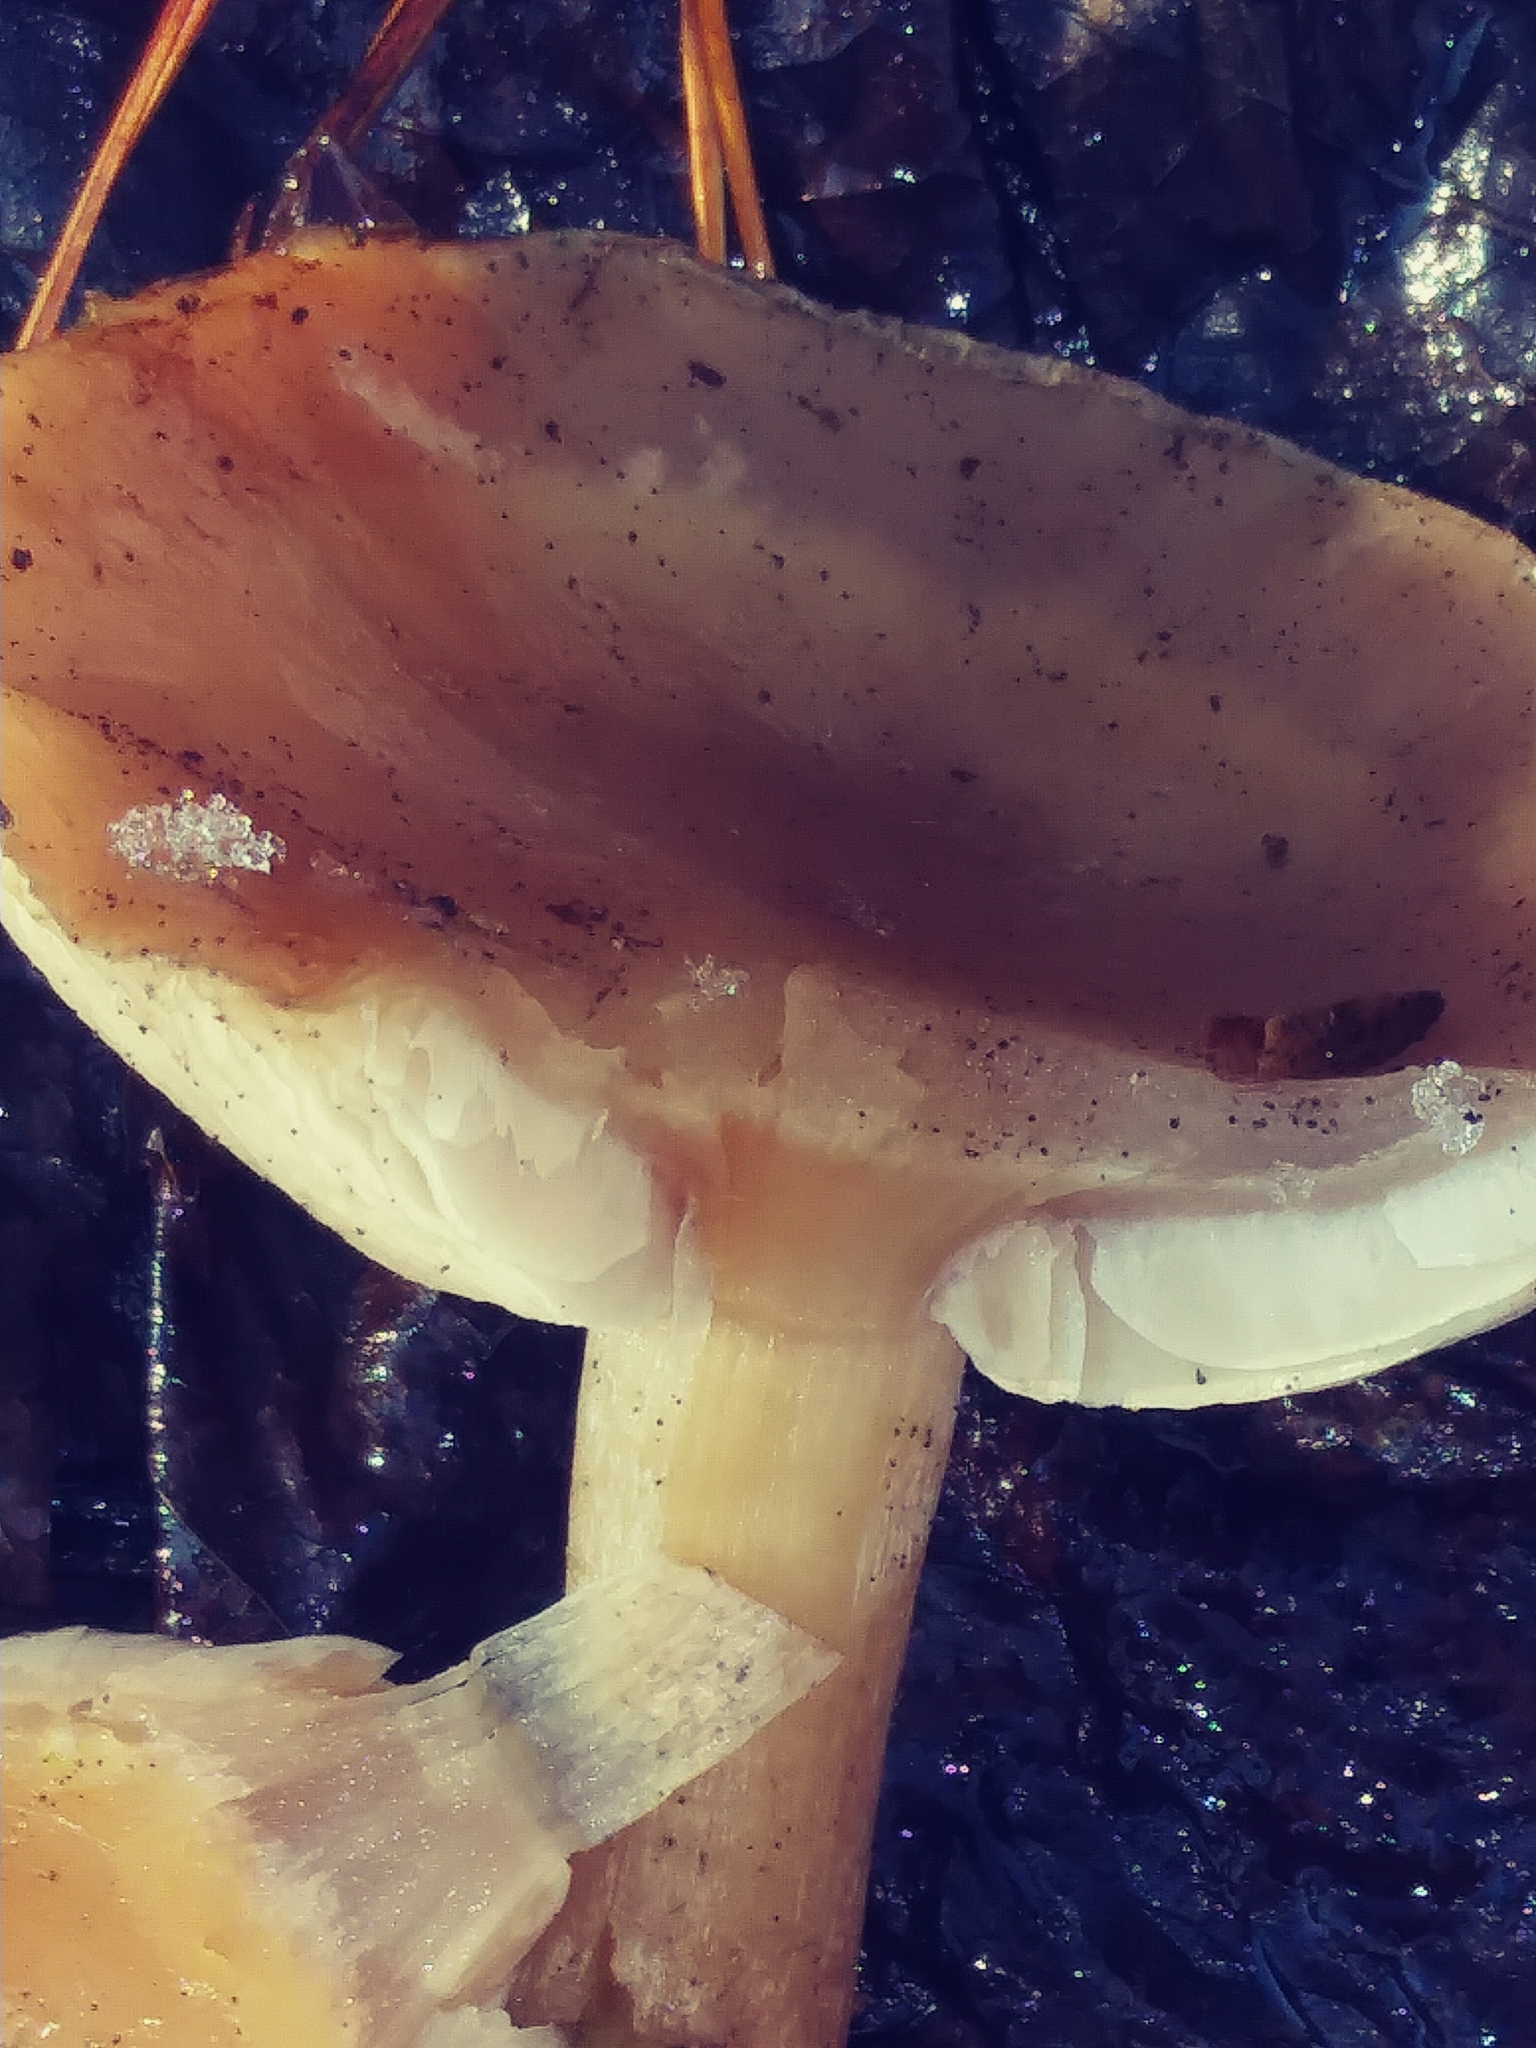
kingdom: Fungi
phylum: Basidiomycota
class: Agaricomycetes
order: Agaricales
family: Tricholomataceae
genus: Collybia
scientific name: Collybia
